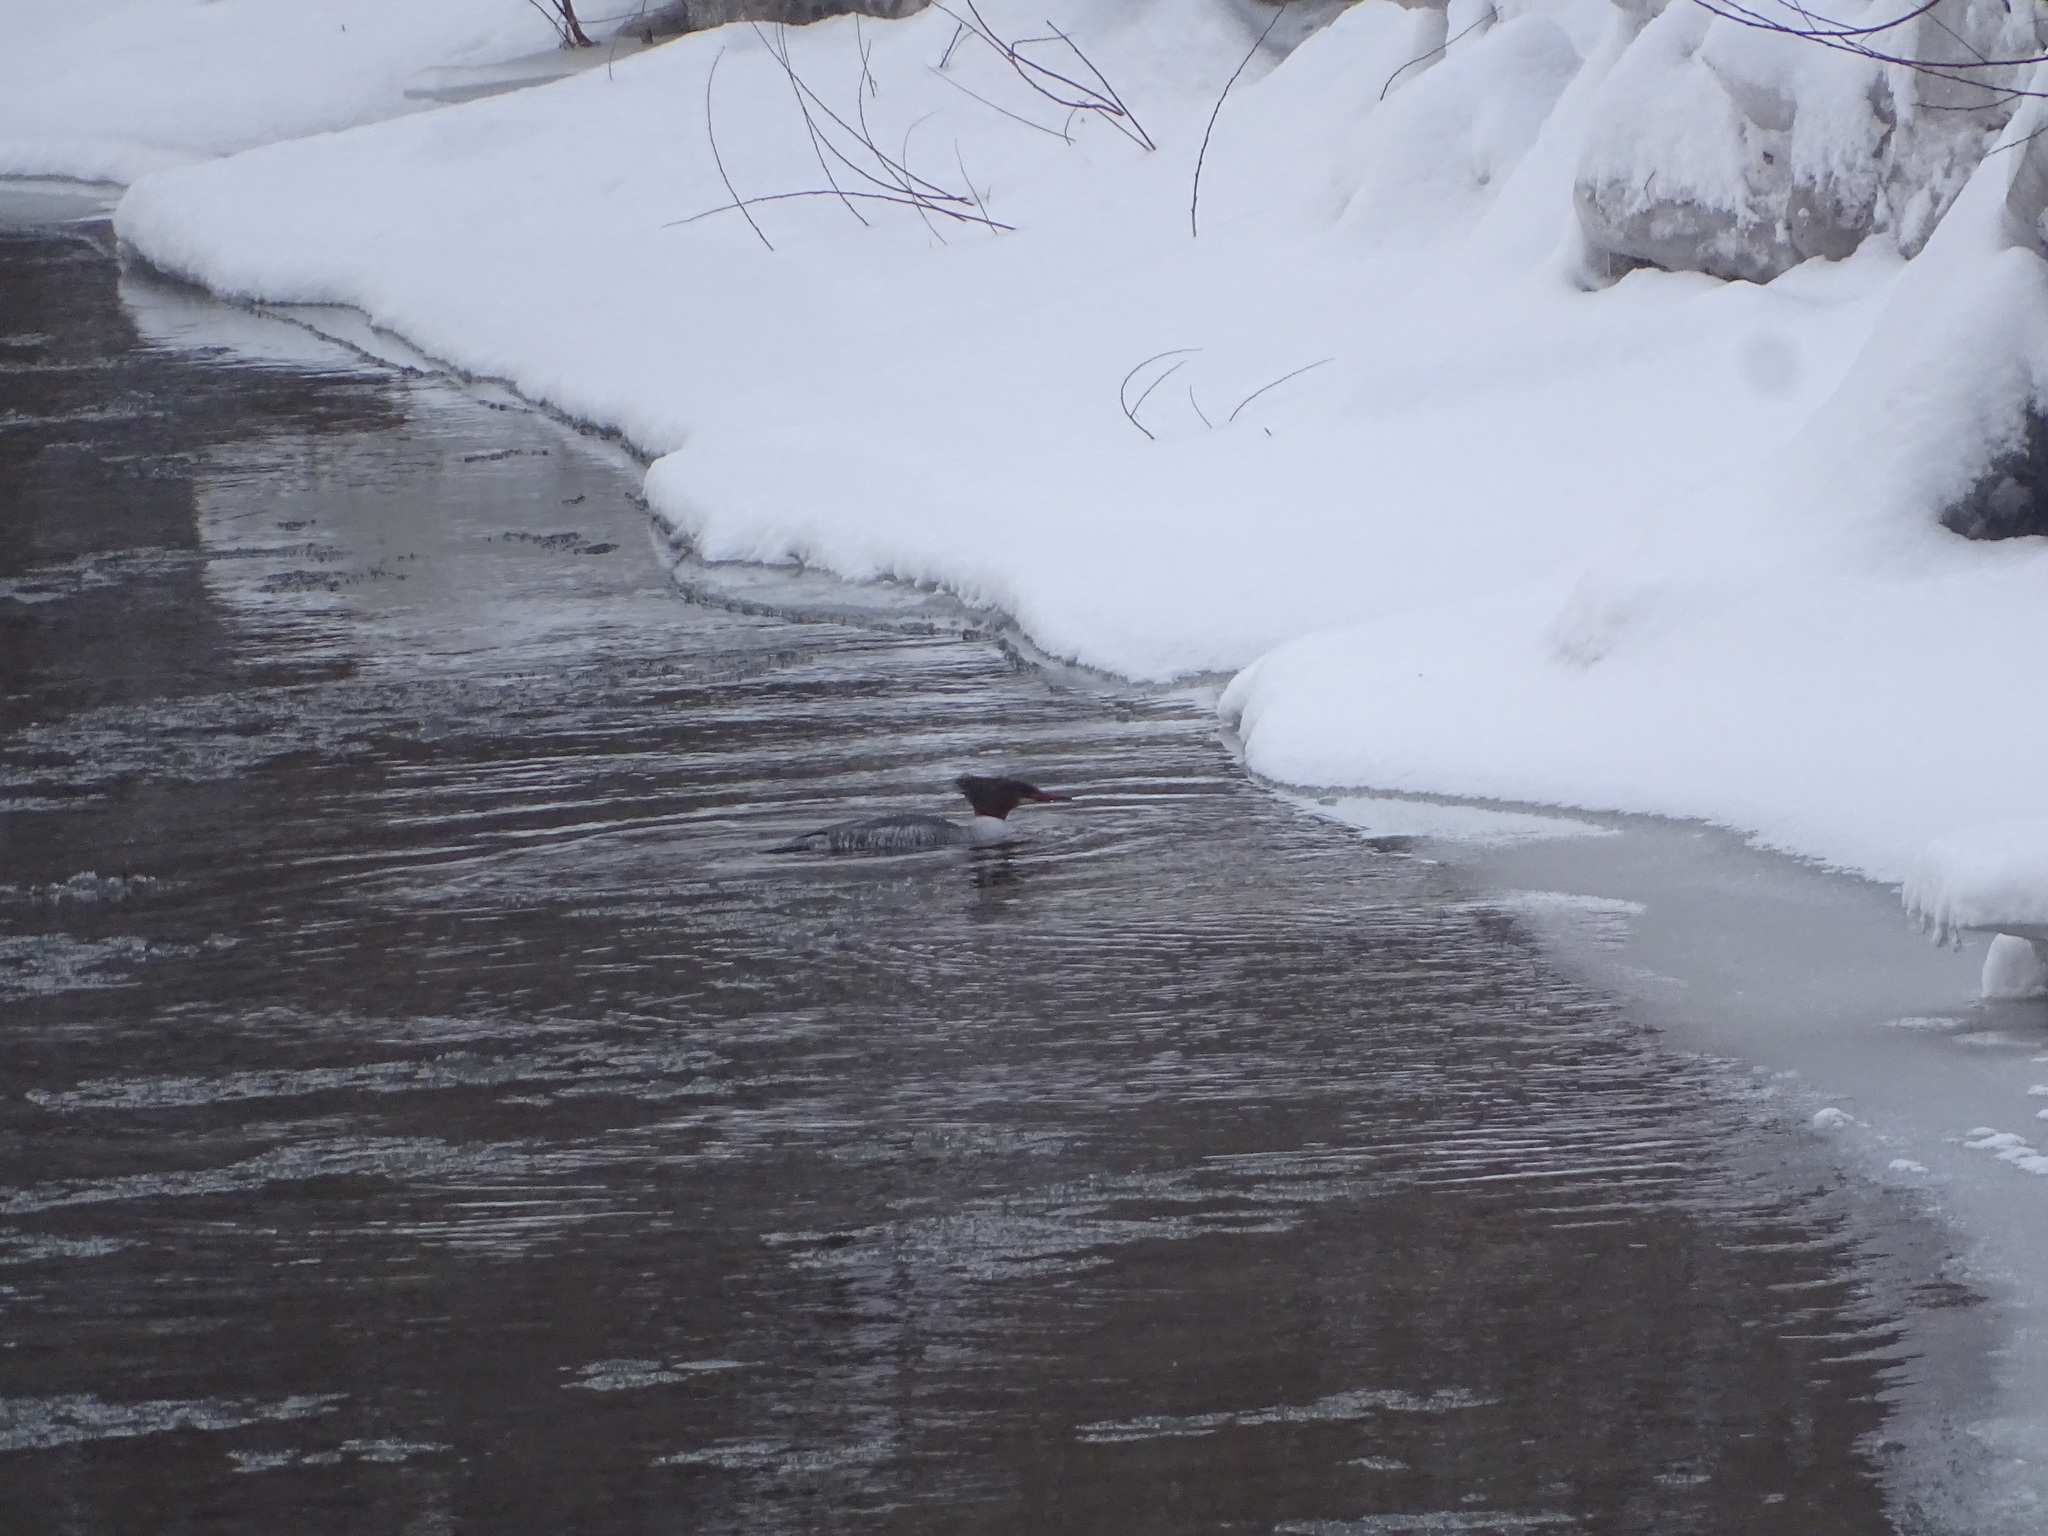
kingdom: Animalia
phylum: Chordata
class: Aves
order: Anseriformes
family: Anatidae
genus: Mergus
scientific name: Mergus merganser
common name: Common merganser
